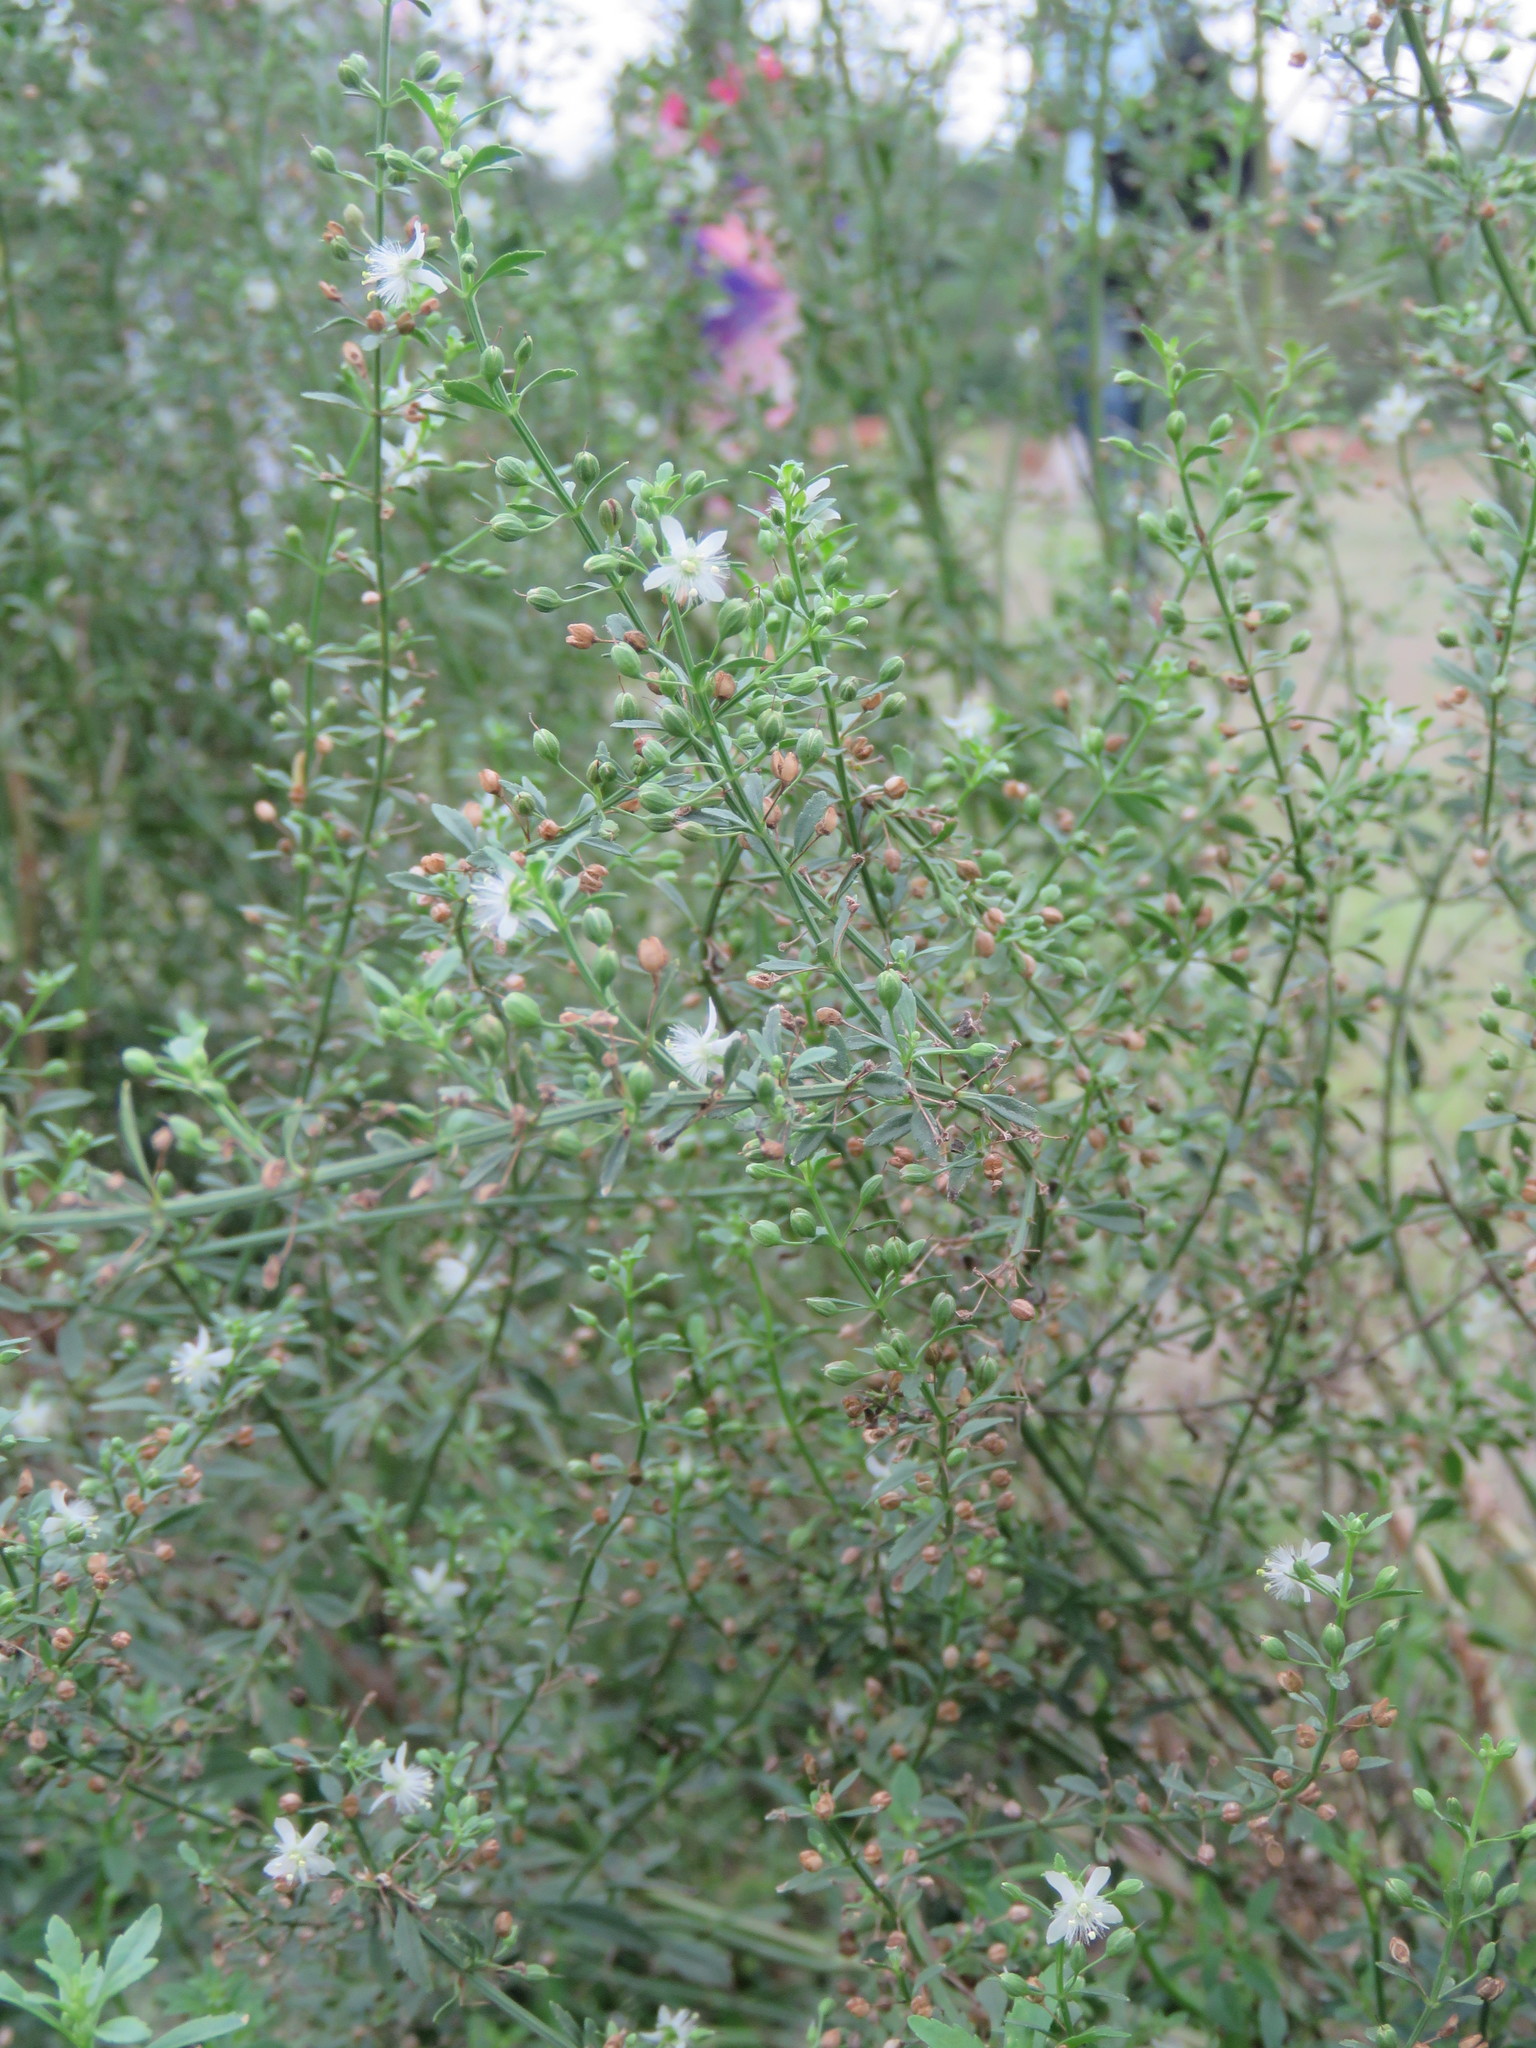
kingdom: Plantae
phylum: Tracheophyta
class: Magnoliopsida
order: Lamiales
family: Plantaginaceae
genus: Scoparia
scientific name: Scoparia dulcis
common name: Scoparia-weed
